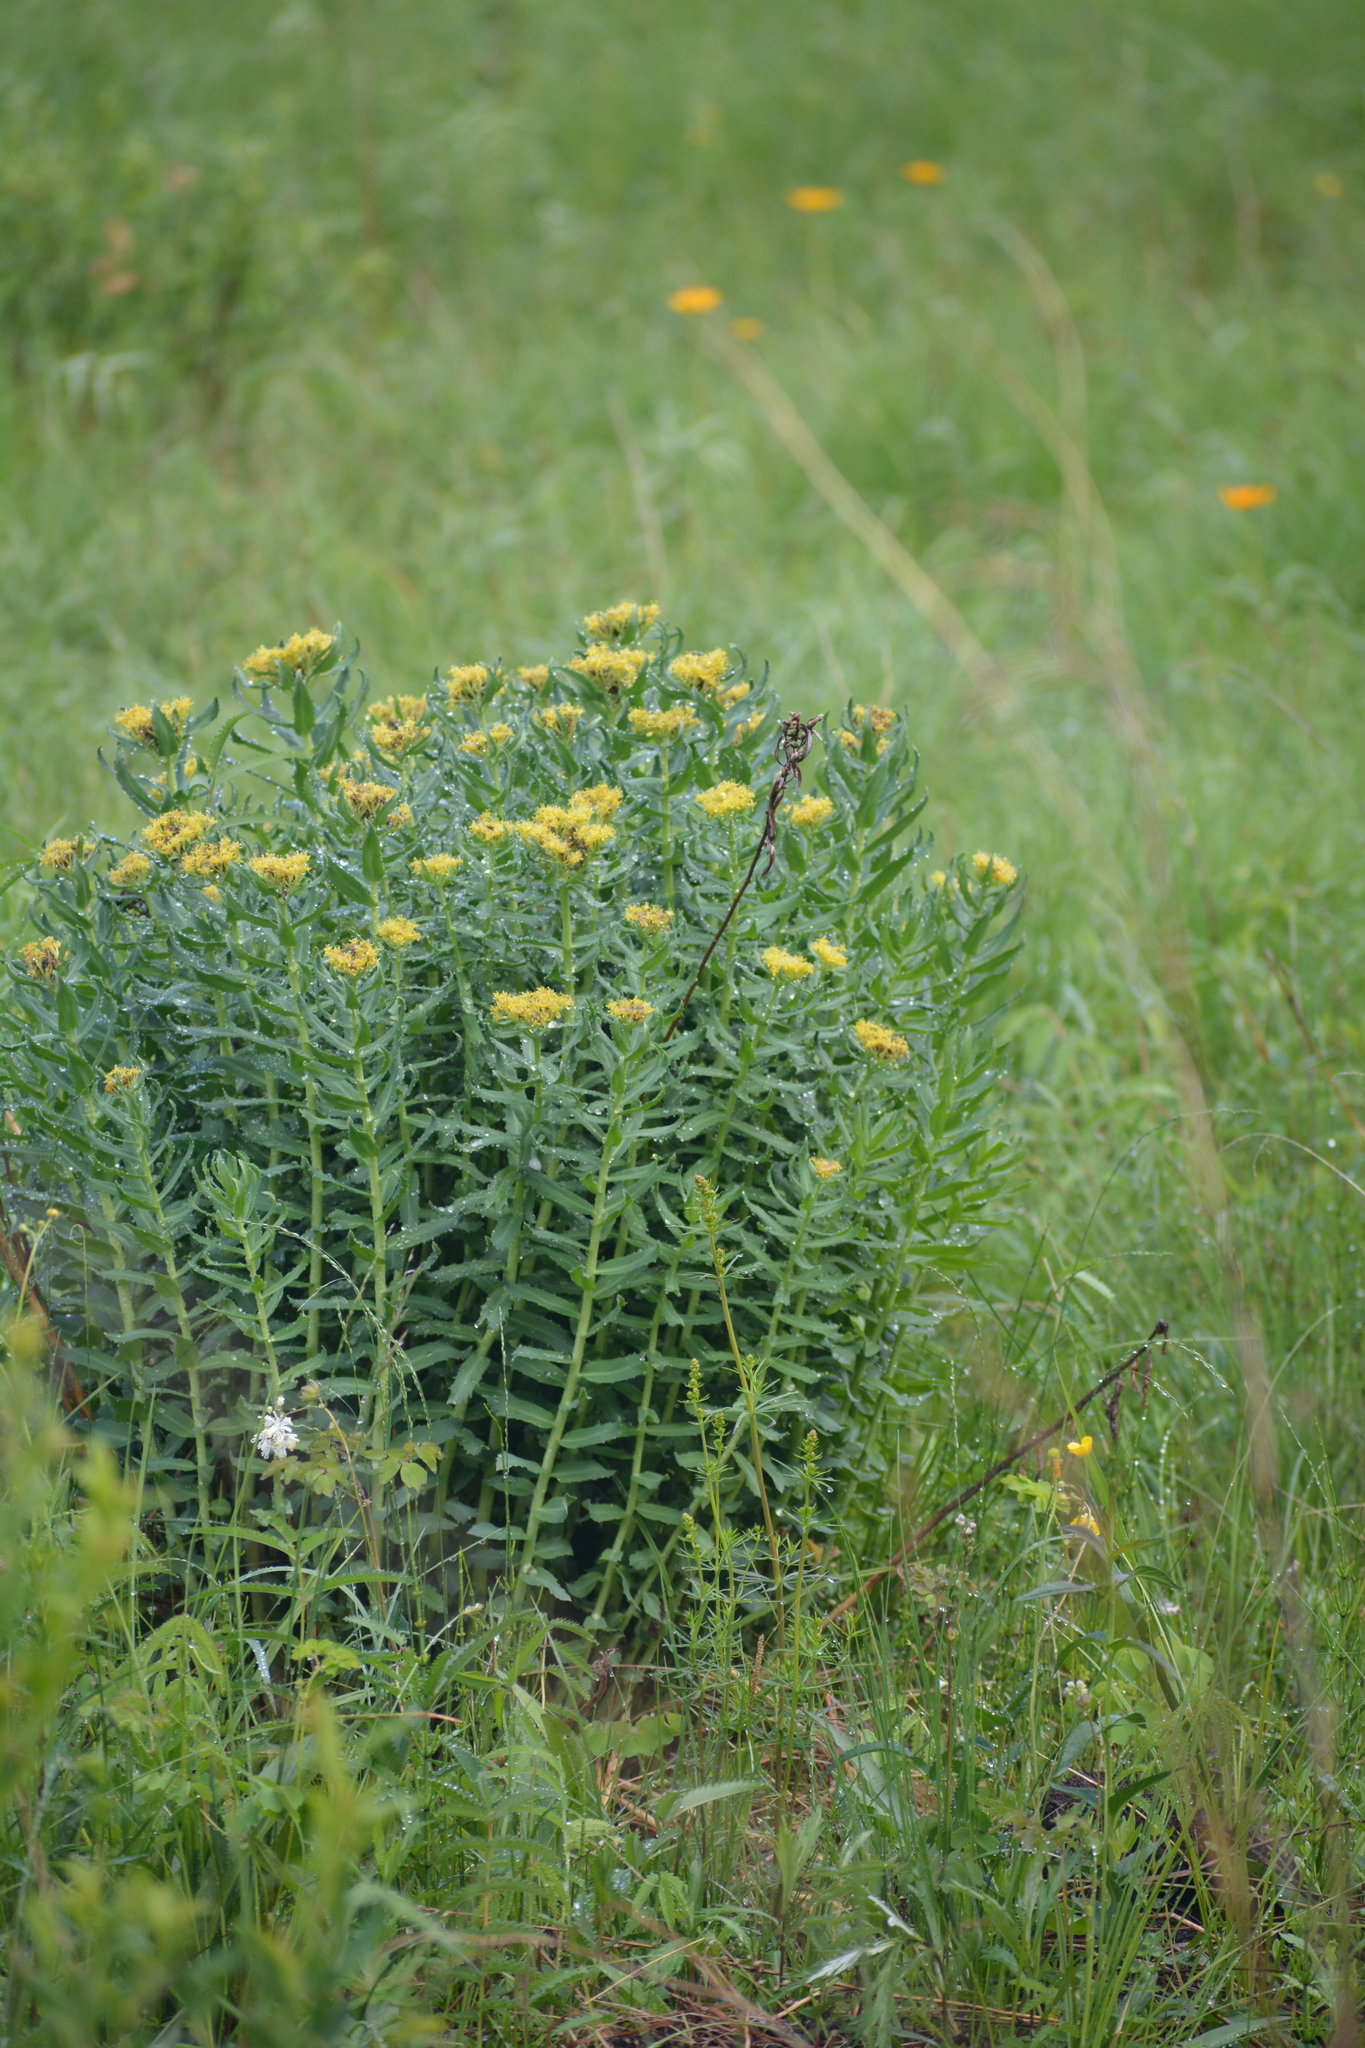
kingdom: Plantae
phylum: Tracheophyta
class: Magnoliopsida
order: Saxifragales
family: Crassulaceae
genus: Rhodiola
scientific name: Rhodiola rosea
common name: Roseroot
